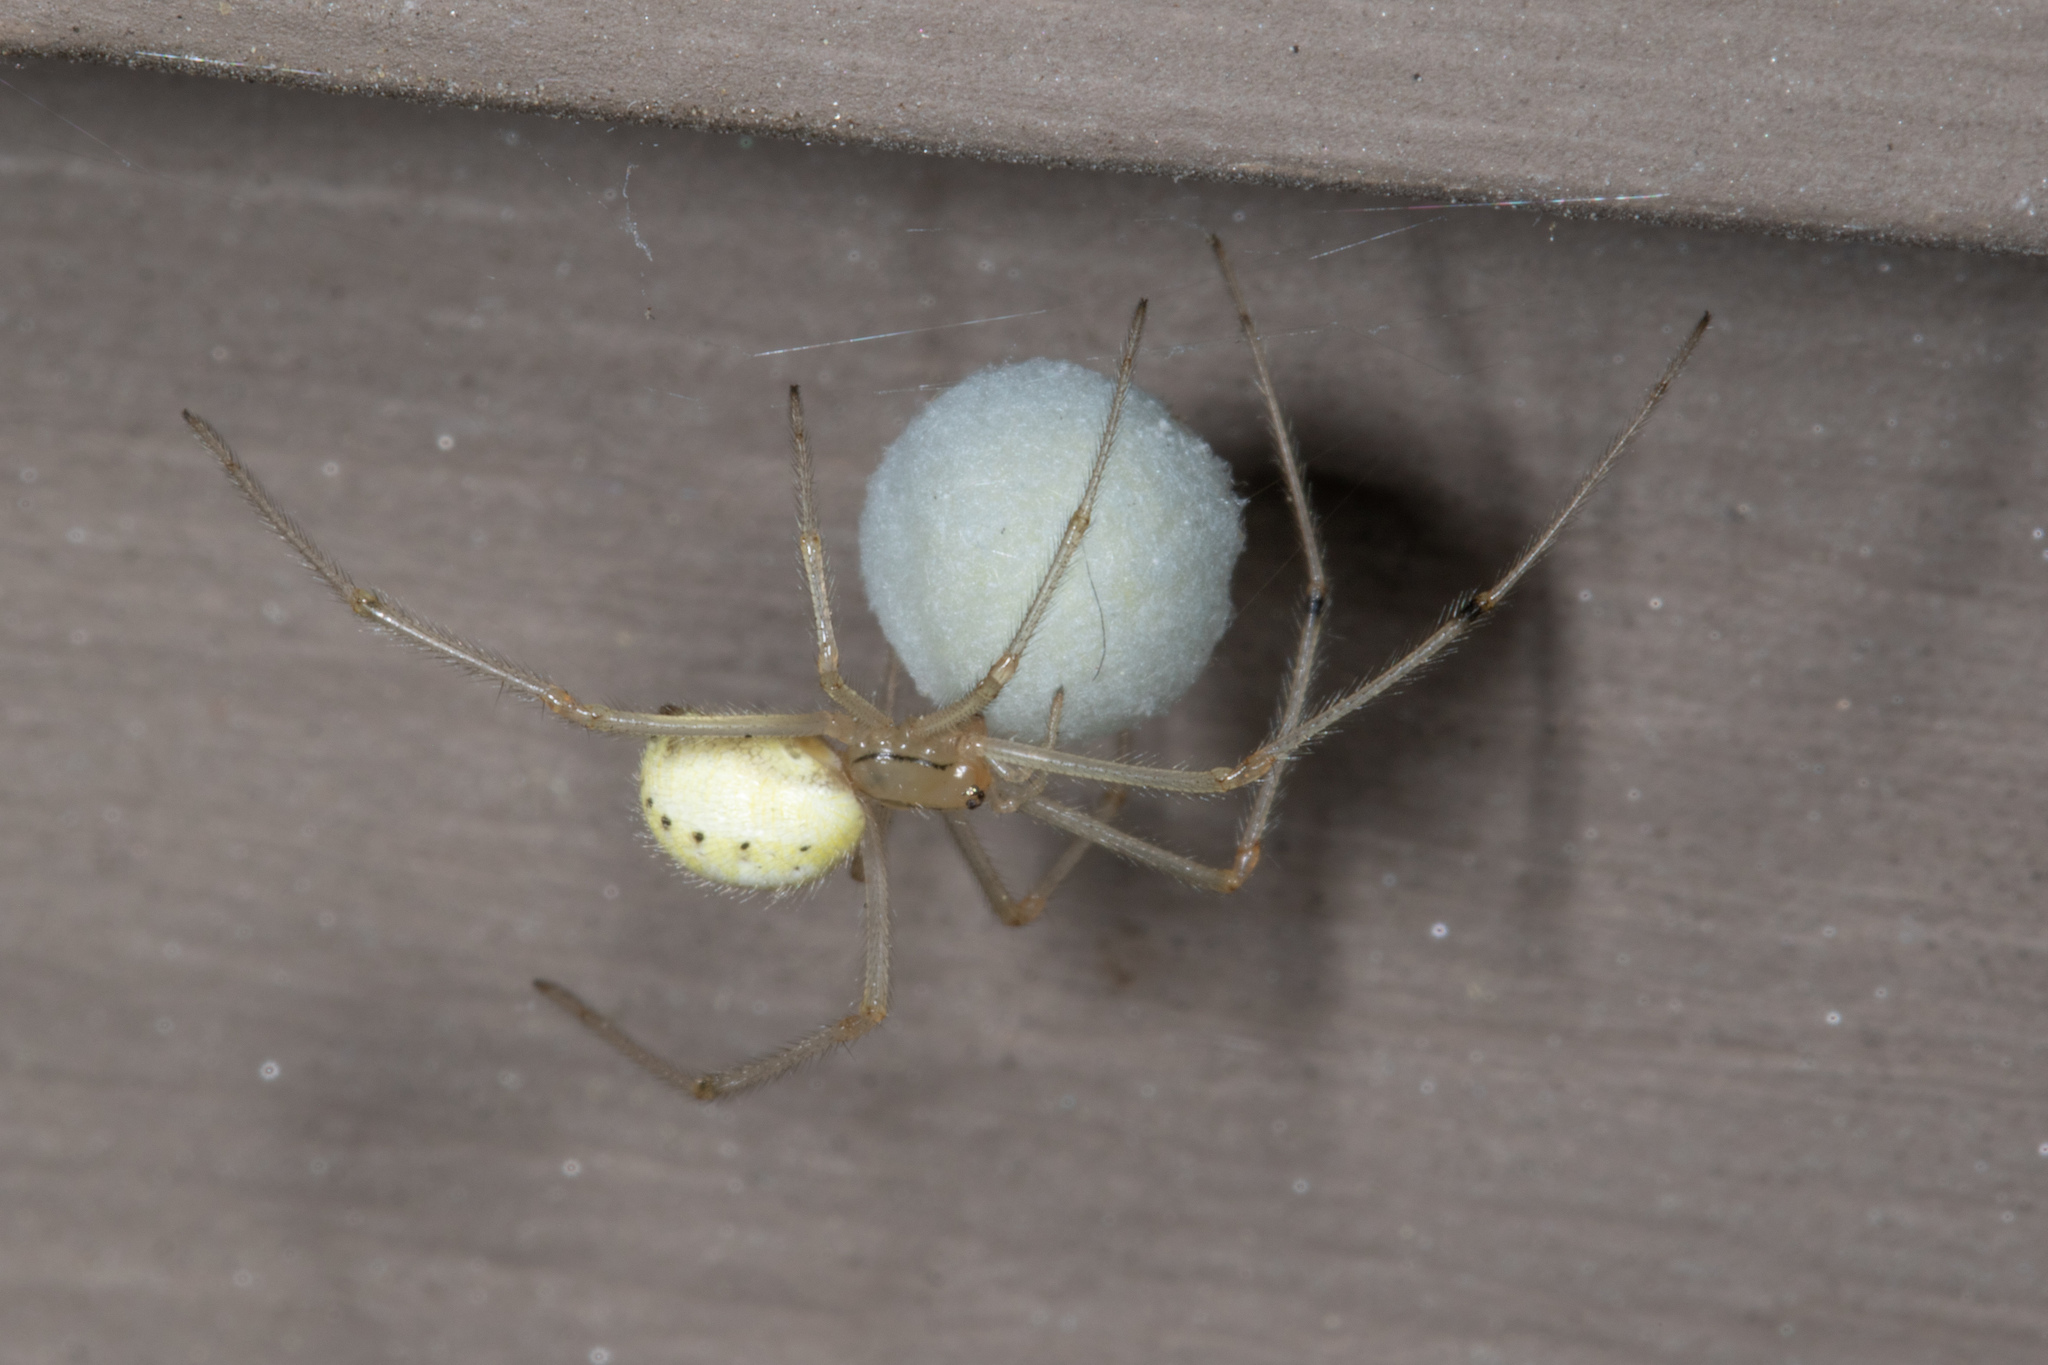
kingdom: Animalia
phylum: Arthropoda
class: Arachnida
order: Araneae
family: Theridiidae
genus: Enoplognatha
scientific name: Enoplognatha ovata
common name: Common candy-striped spider
